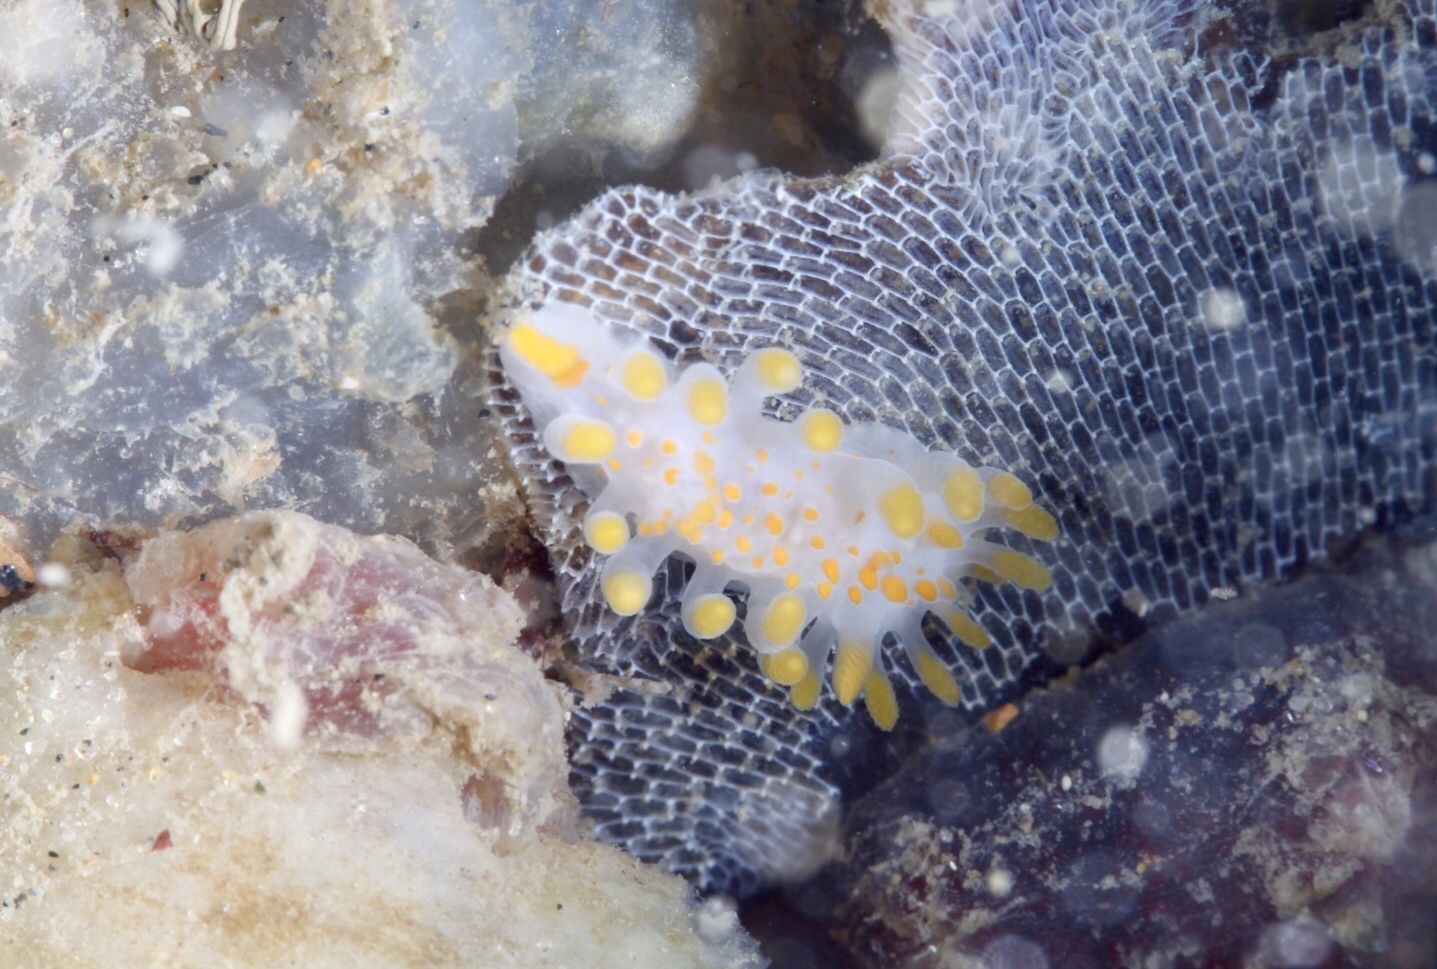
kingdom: Animalia
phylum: Mollusca
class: Gastropoda
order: Nudibranchia
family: Polyceridae
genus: Limacia
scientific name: Limacia clavigera
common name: Orange-clubbed sea slug
